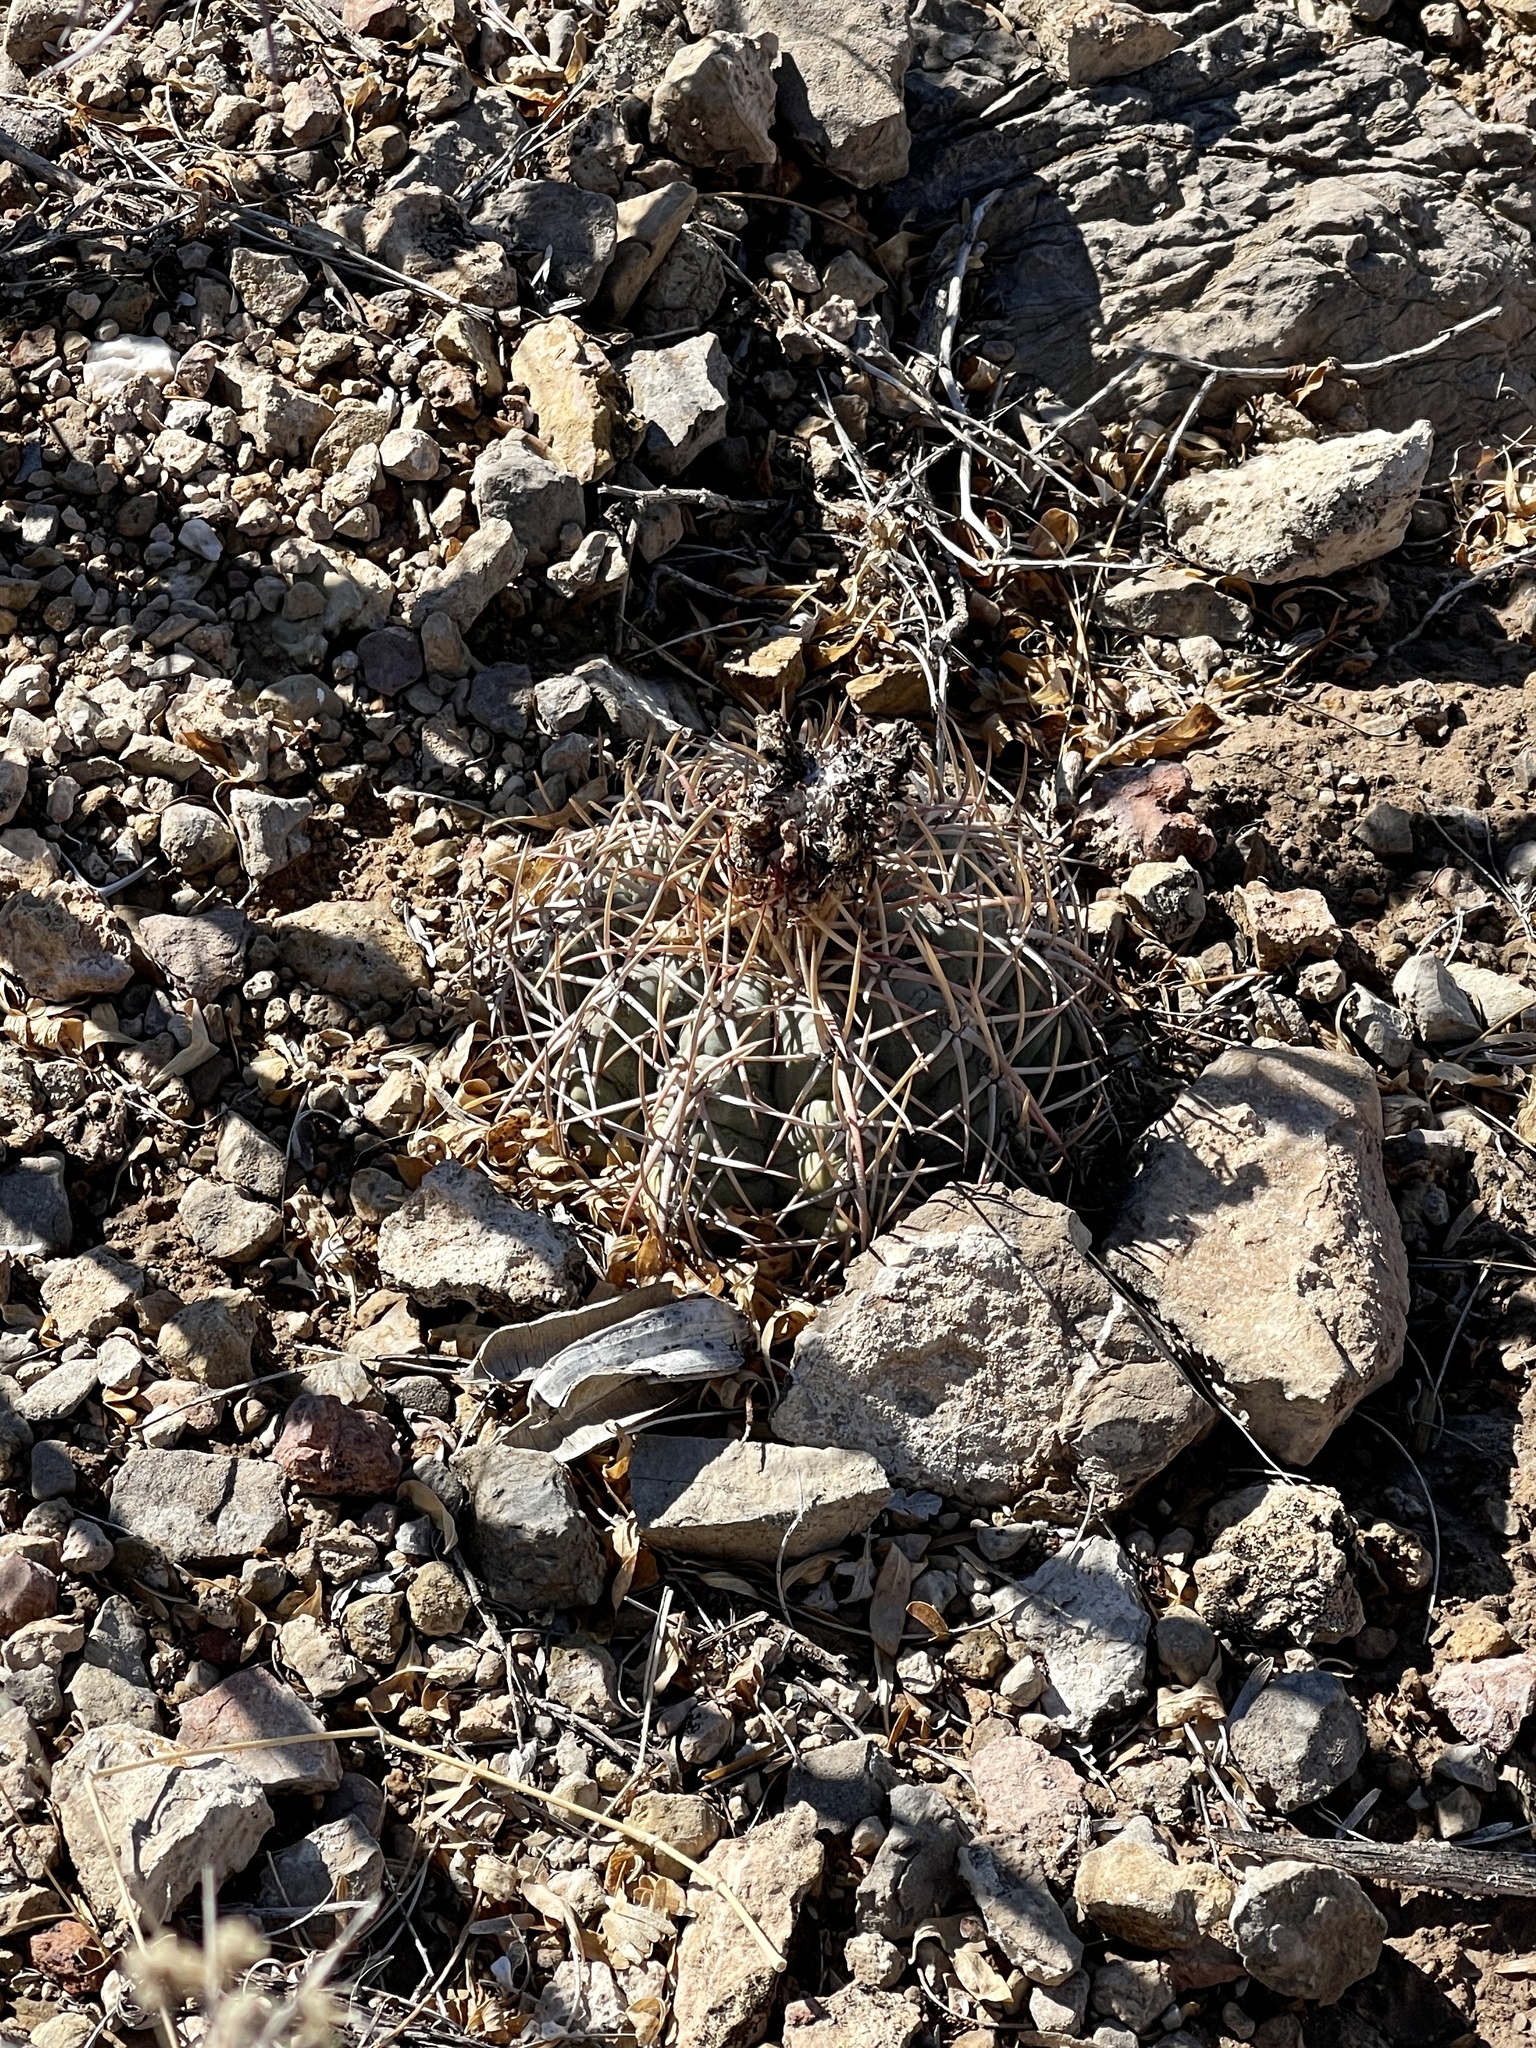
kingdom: Plantae
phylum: Tracheophyta
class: Magnoliopsida
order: Caryophyllales
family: Cactaceae
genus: Echinocactus
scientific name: Echinocactus horizonthalonius
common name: Devilshead
